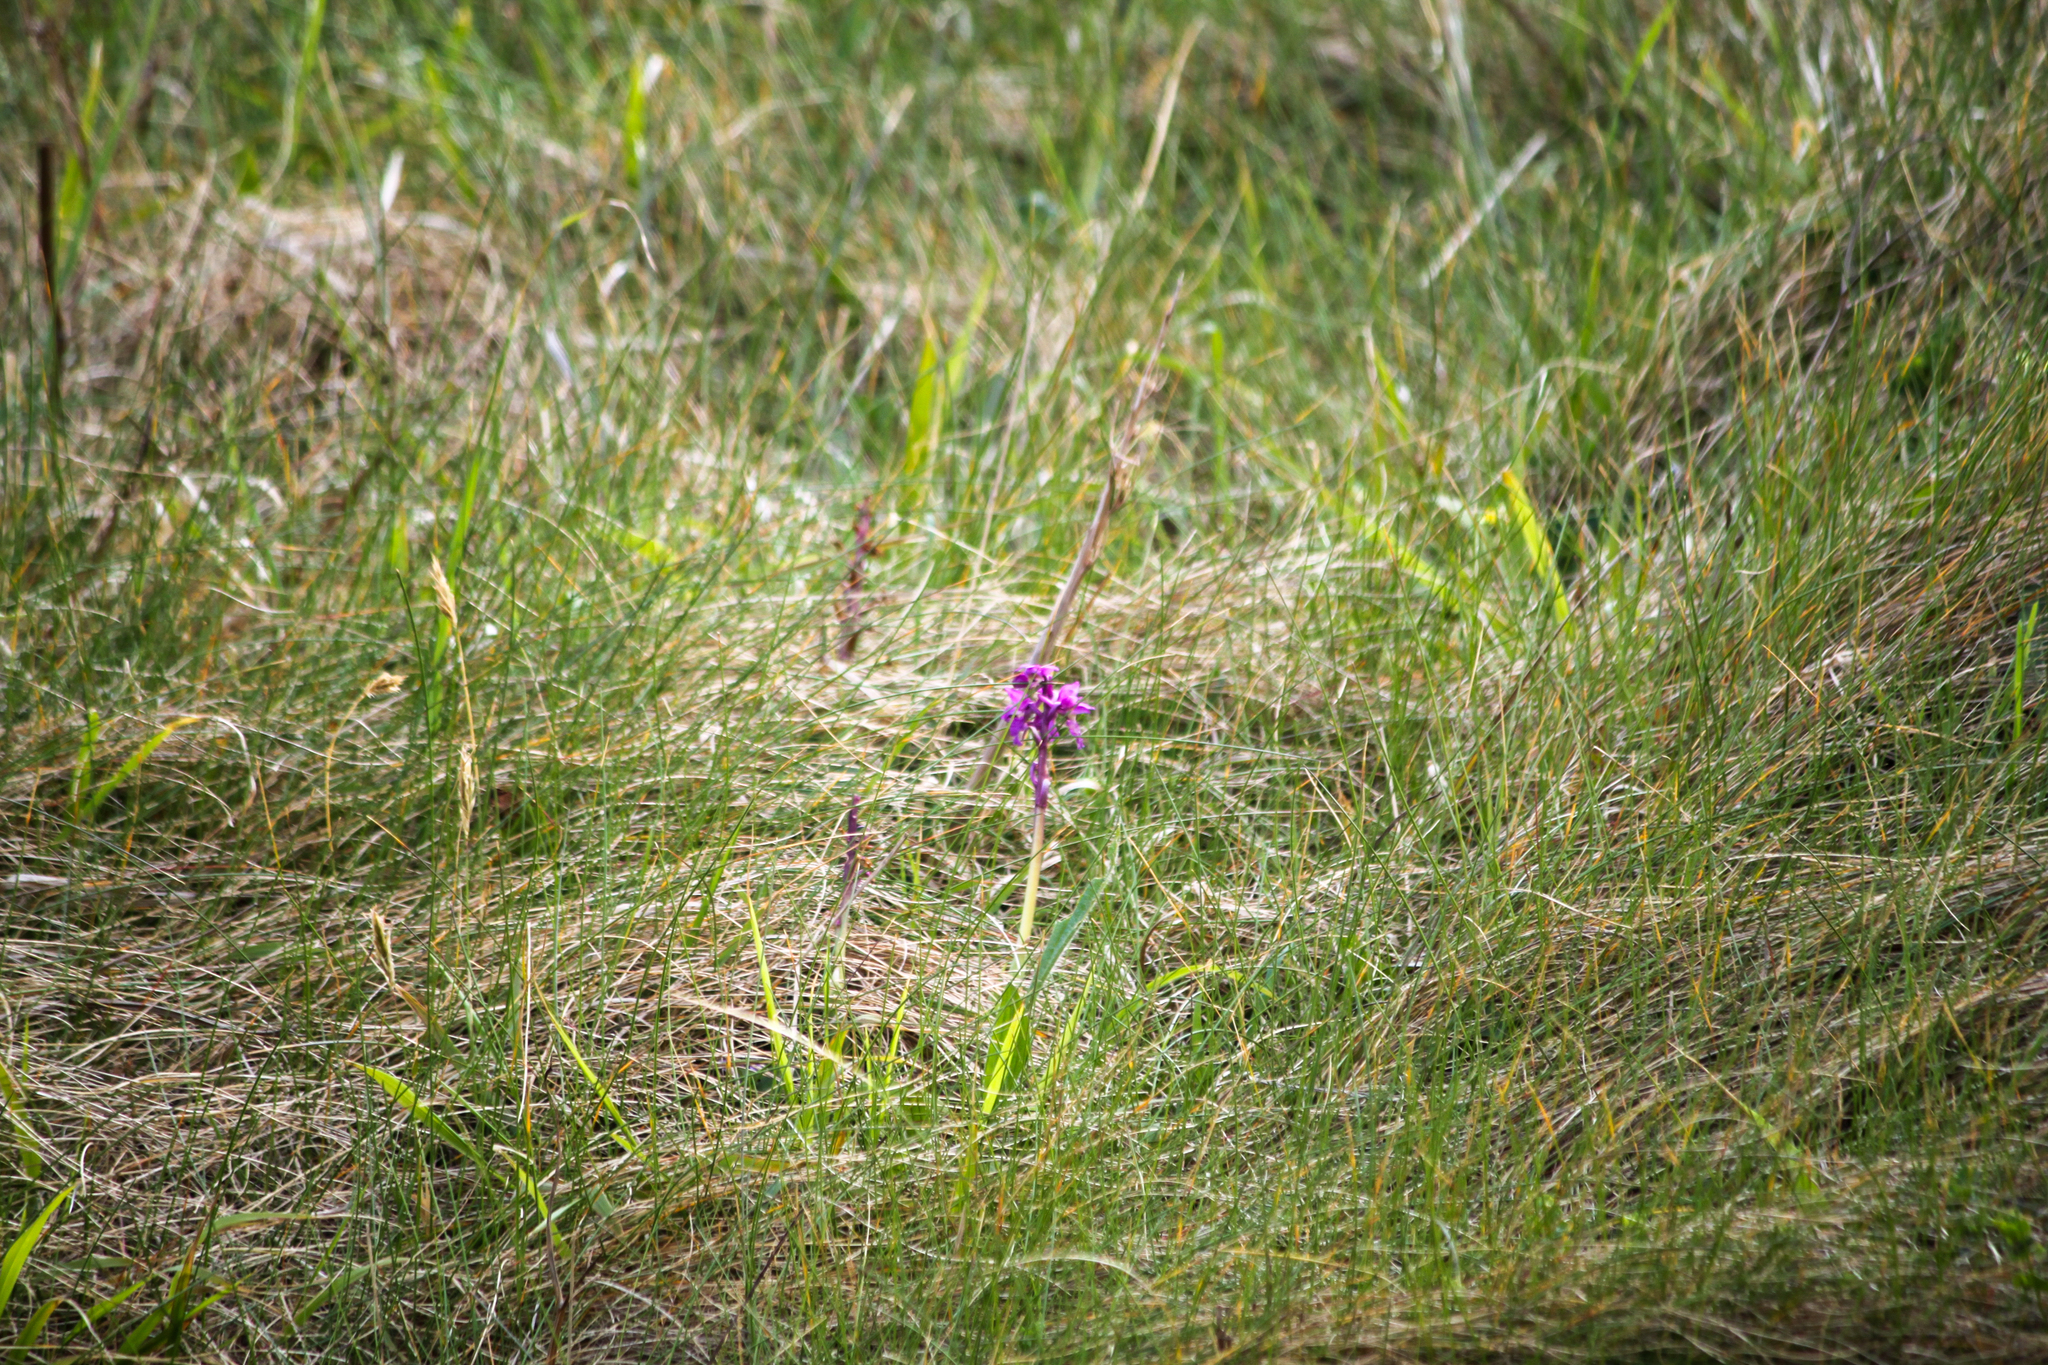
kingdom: Plantae
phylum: Tracheophyta
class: Liliopsida
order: Asparagales
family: Orchidaceae
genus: Orchis
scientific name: Orchis mascula
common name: Early-purple orchid
